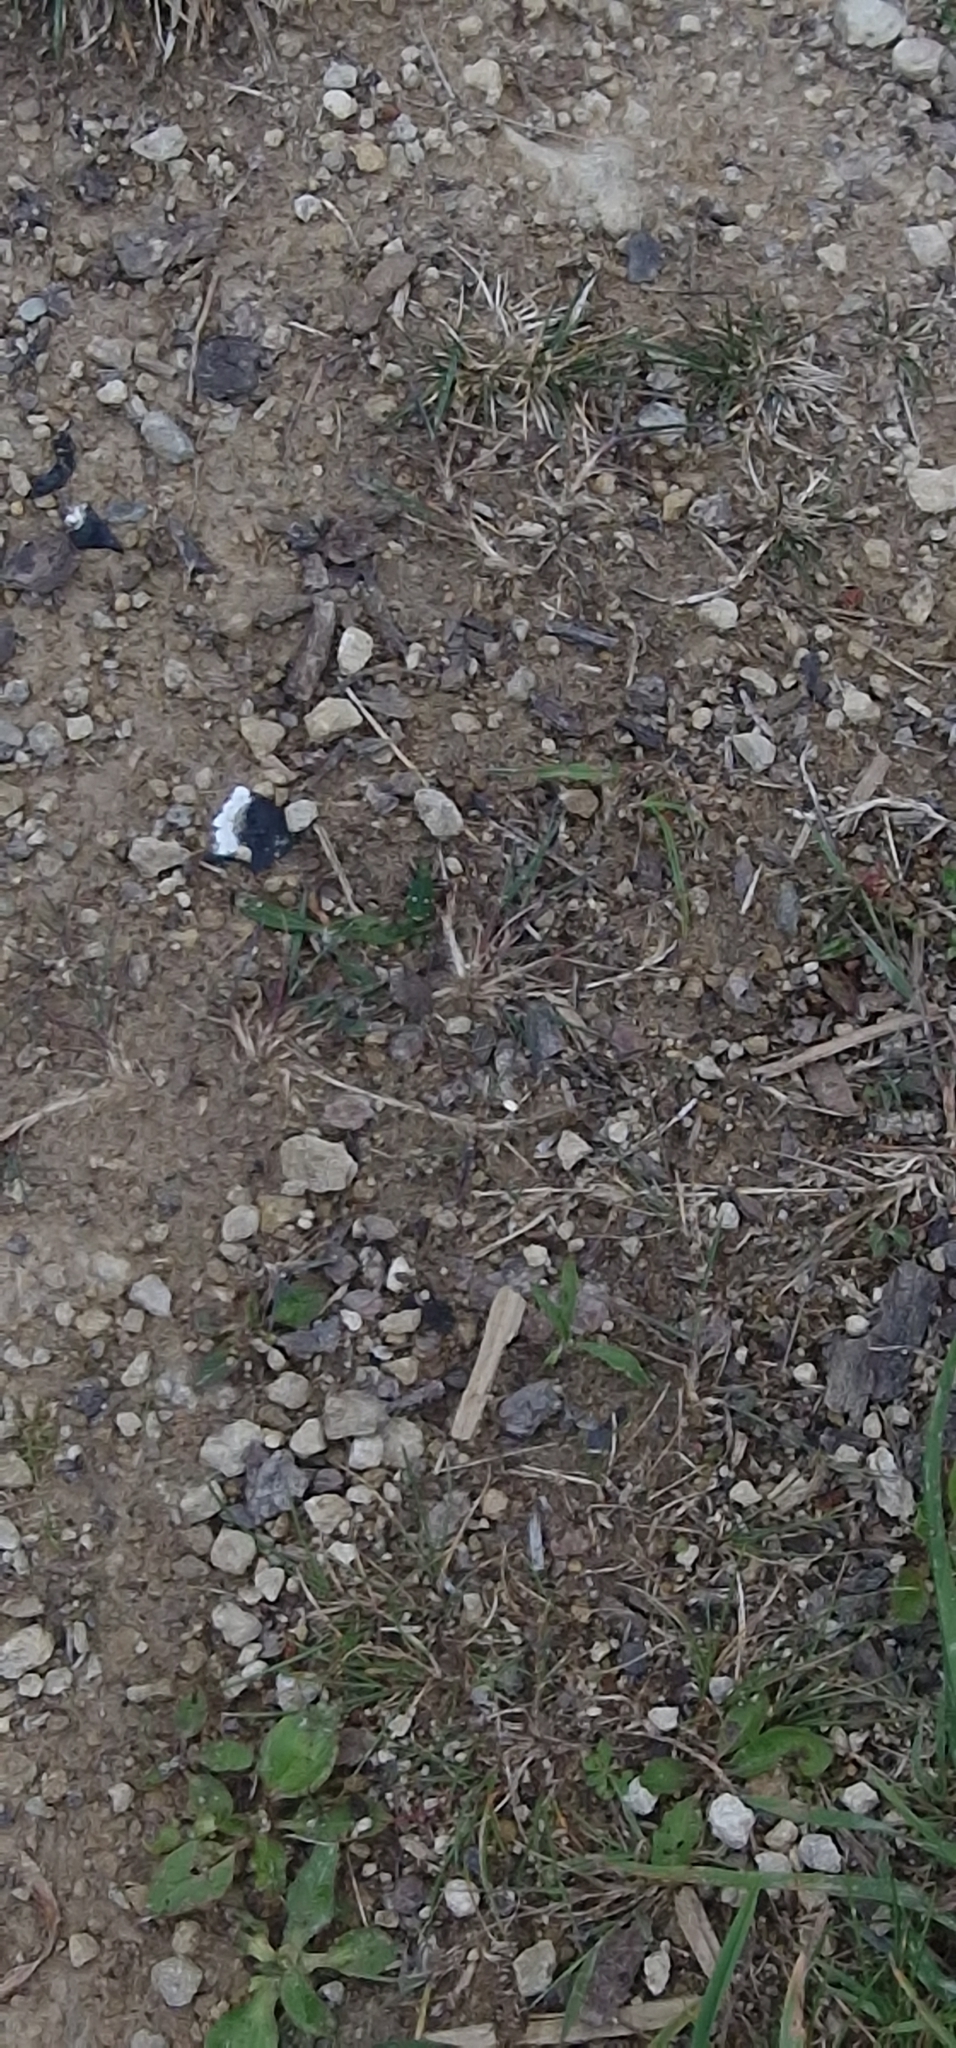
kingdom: Animalia
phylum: Arthropoda
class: Insecta
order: Coleoptera
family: Carabidae
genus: Cicindela
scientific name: Cicindela campestris
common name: Common tiger beetle
